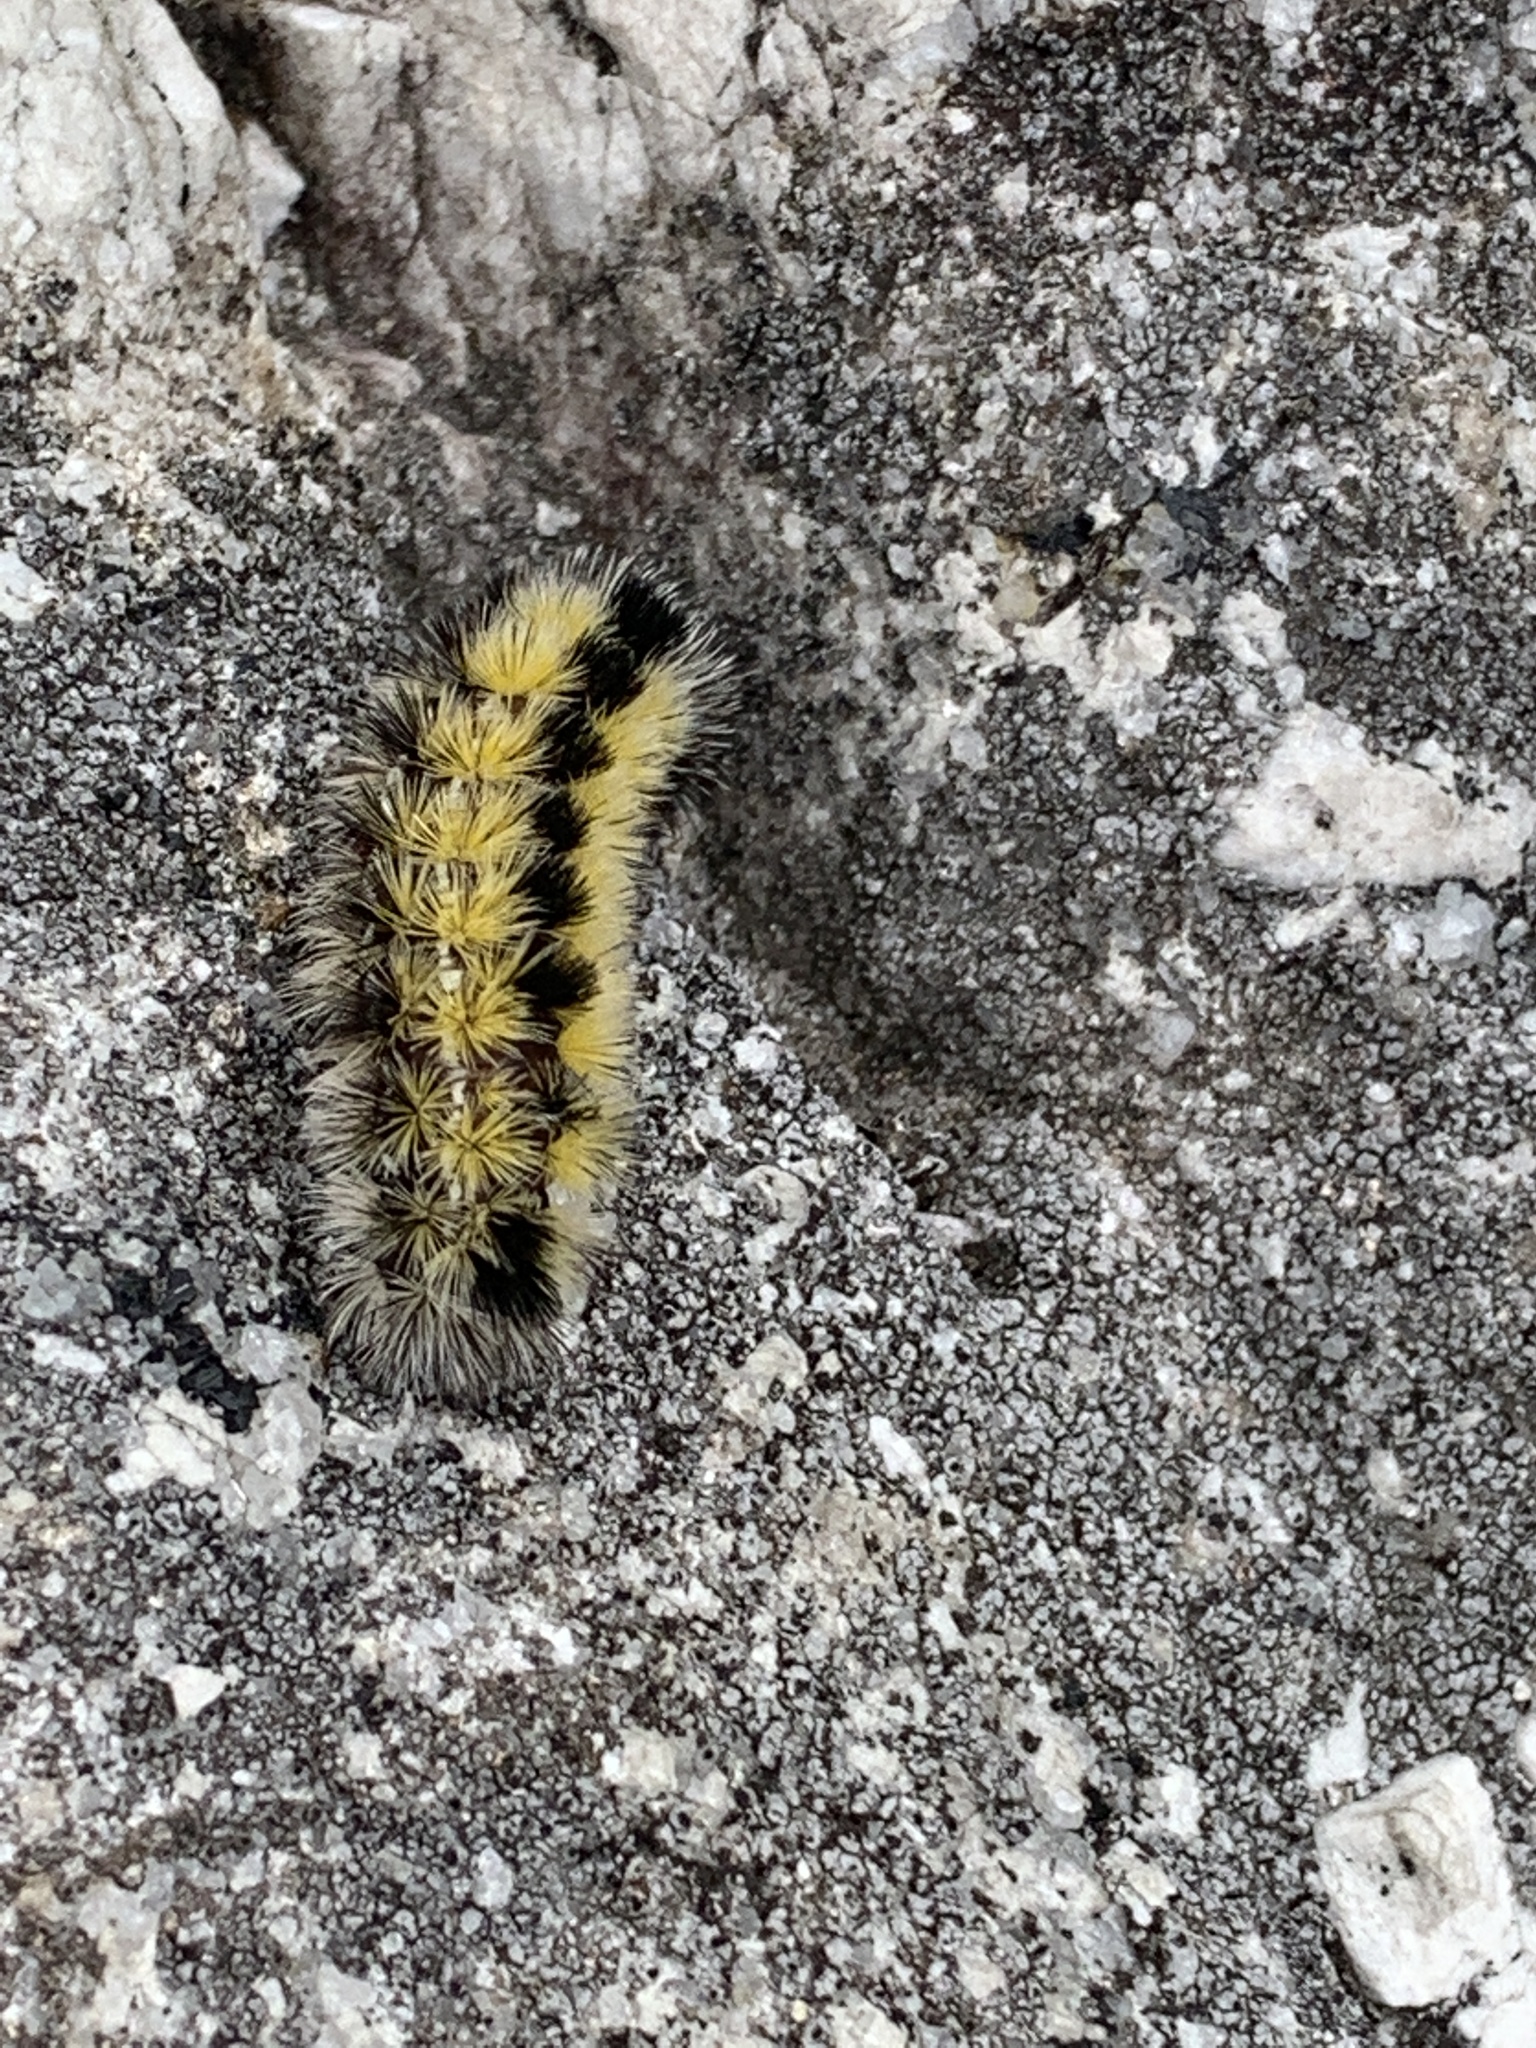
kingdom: Animalia
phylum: Arthropoda
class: Insecta
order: Lepidoptera
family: Erebidae
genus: Ctenucha
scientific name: Ctenucha virginica
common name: Virginia ctenucha moth
